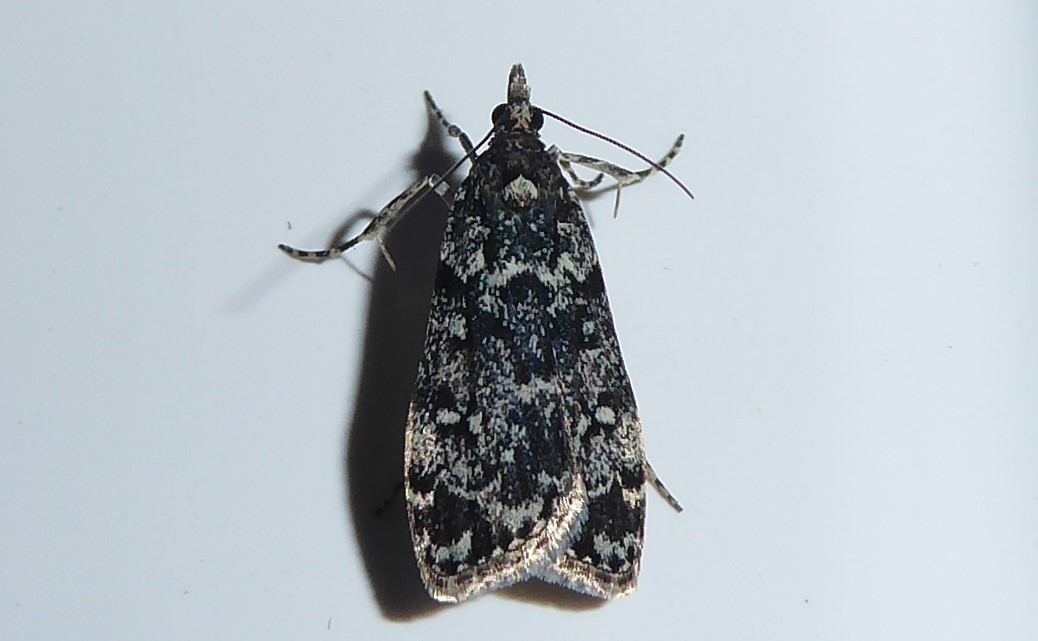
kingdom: Animalia
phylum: Arthropoda
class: Insecta
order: Lepidoptera
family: Crambidae
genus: Eudonia
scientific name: Eudonia philerga
